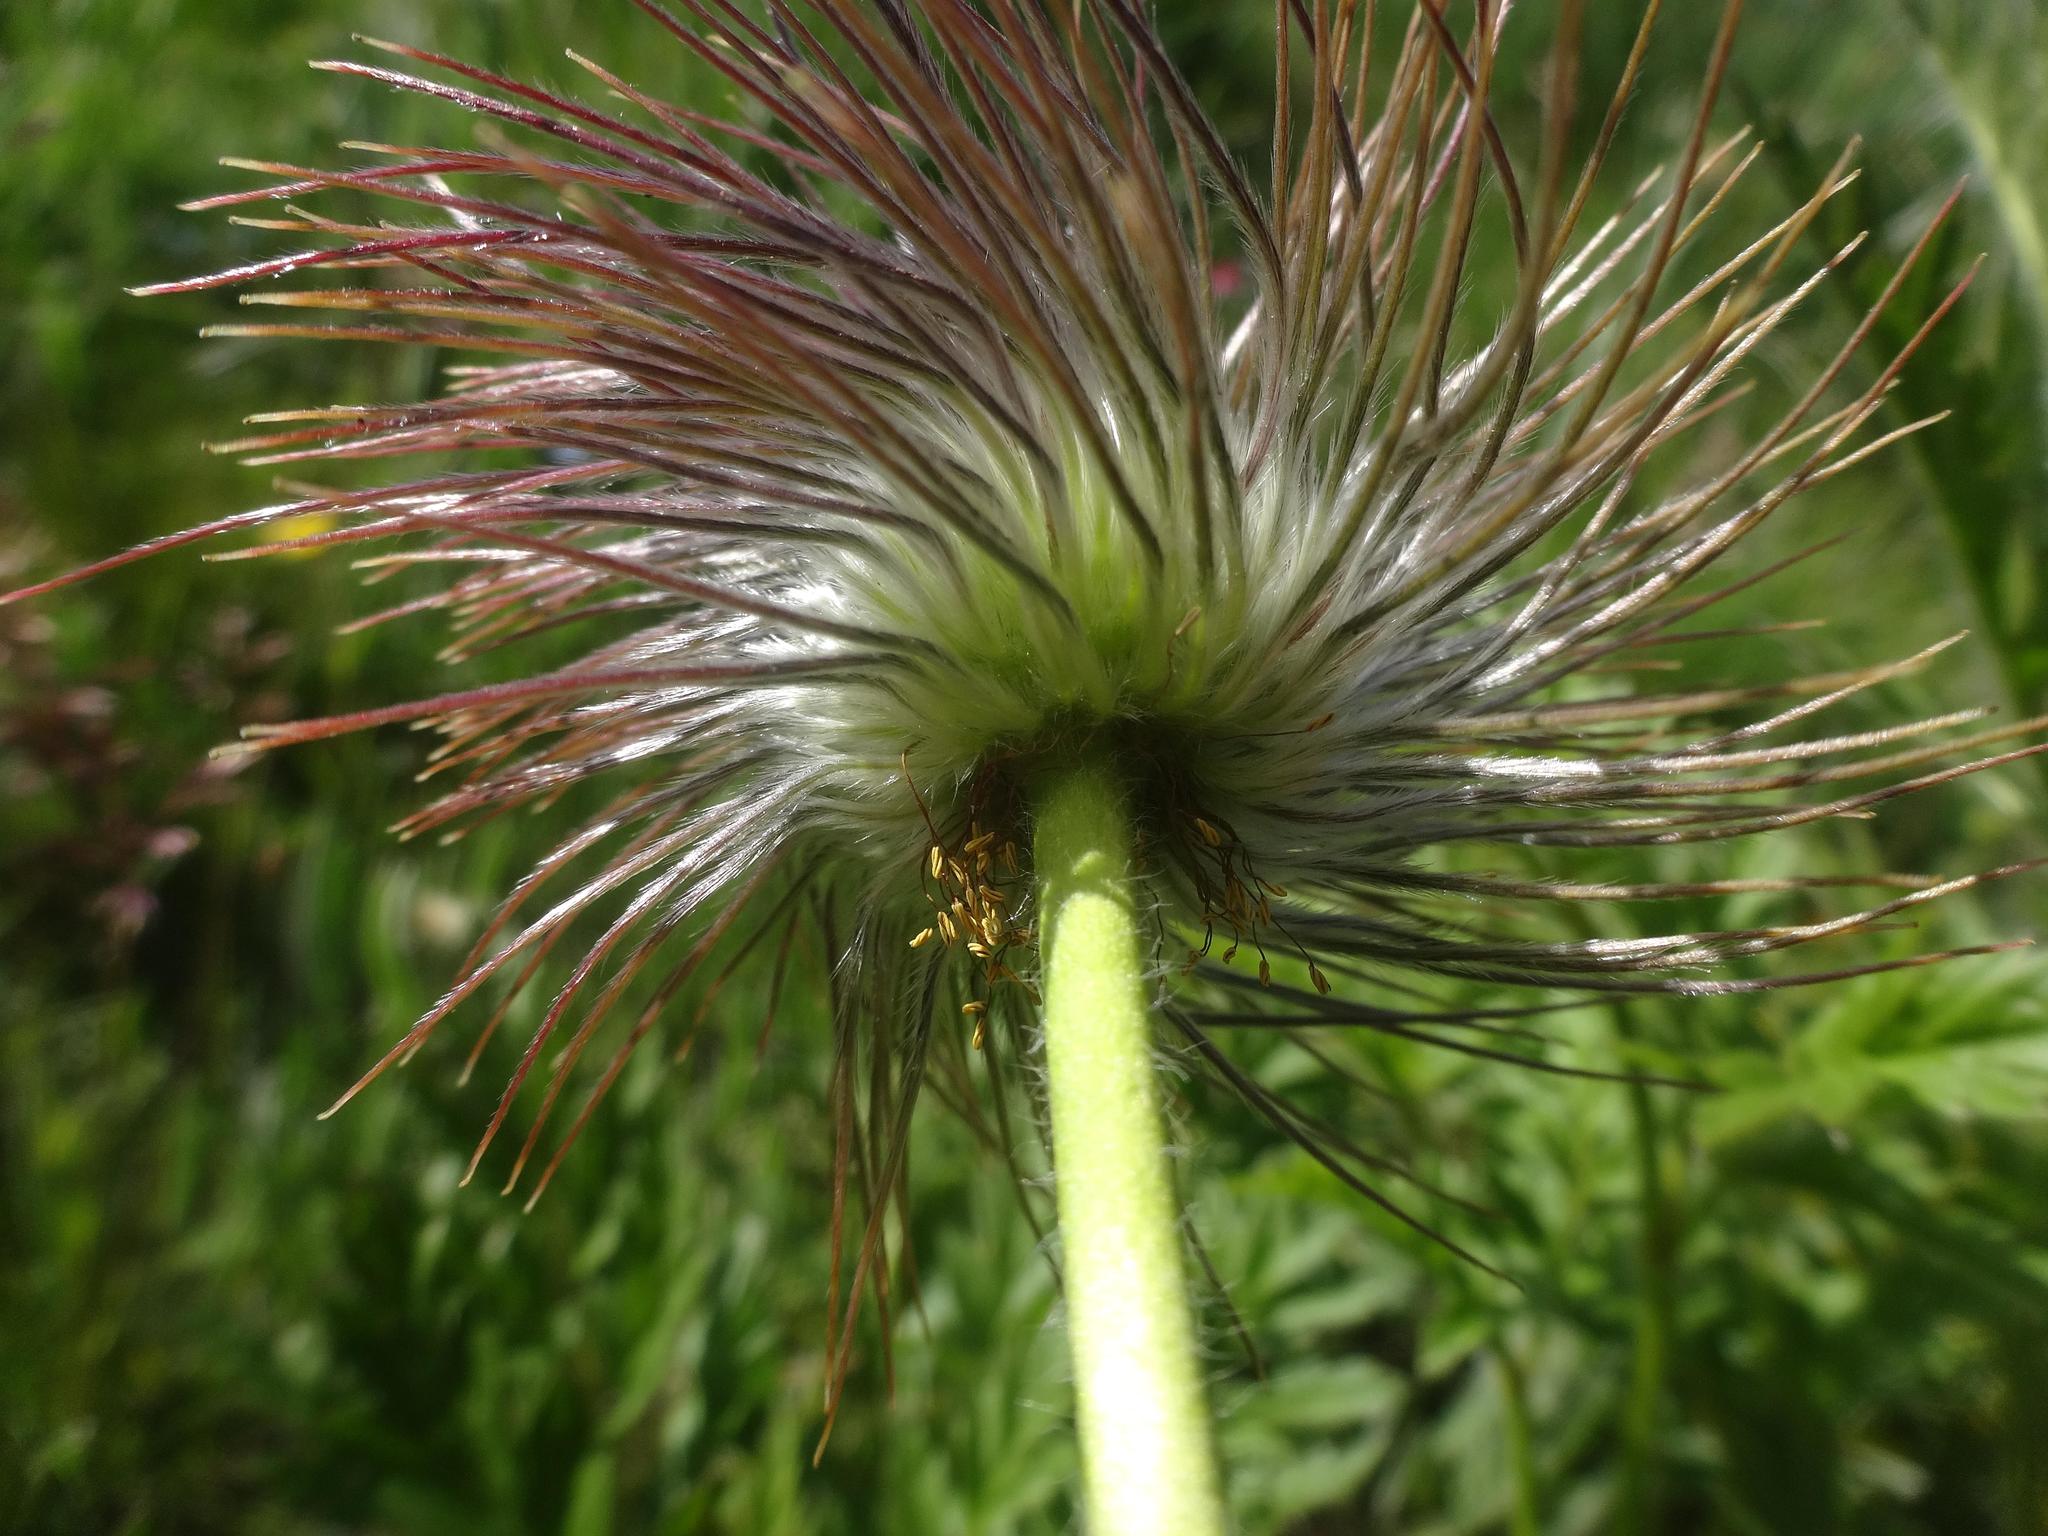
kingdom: Plantae
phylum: Tracheophyta
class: Magnoliopsida
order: Ranunculales
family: Ranunculaceae
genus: Pulsatilla
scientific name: Pulsatilla alpina
